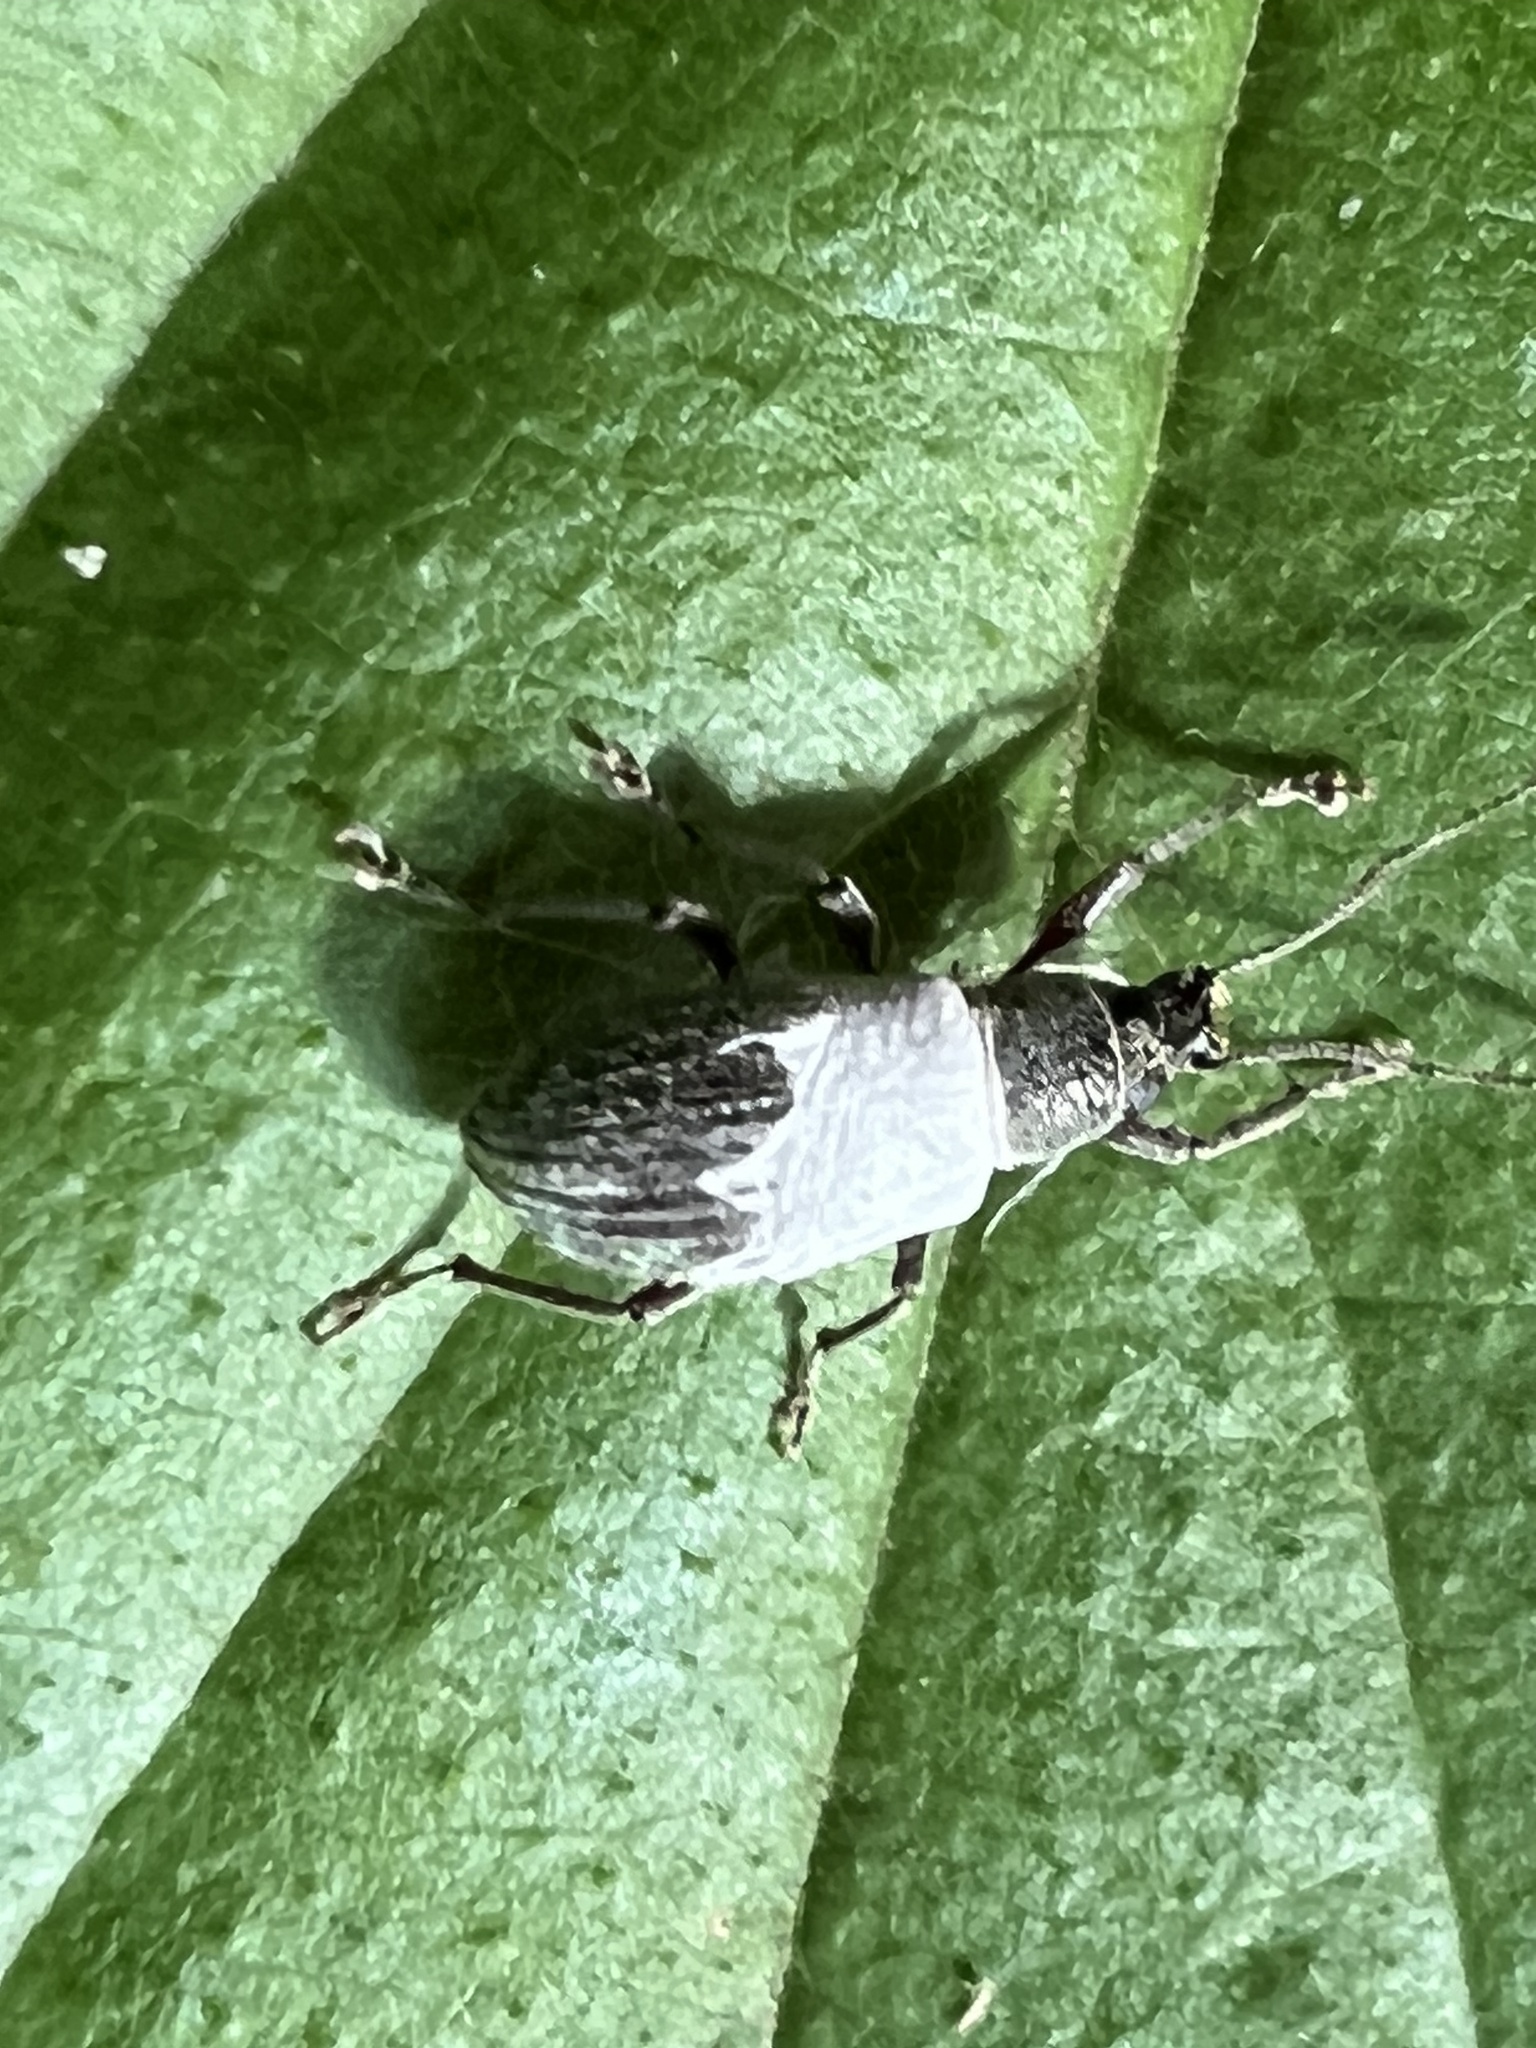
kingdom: Animalia
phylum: Arthropoda
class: Insecta
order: Coleoptera
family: Curculionidae
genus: Cyrtepistomus
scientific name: Cyrtepistomus castaneus
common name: Weevil
